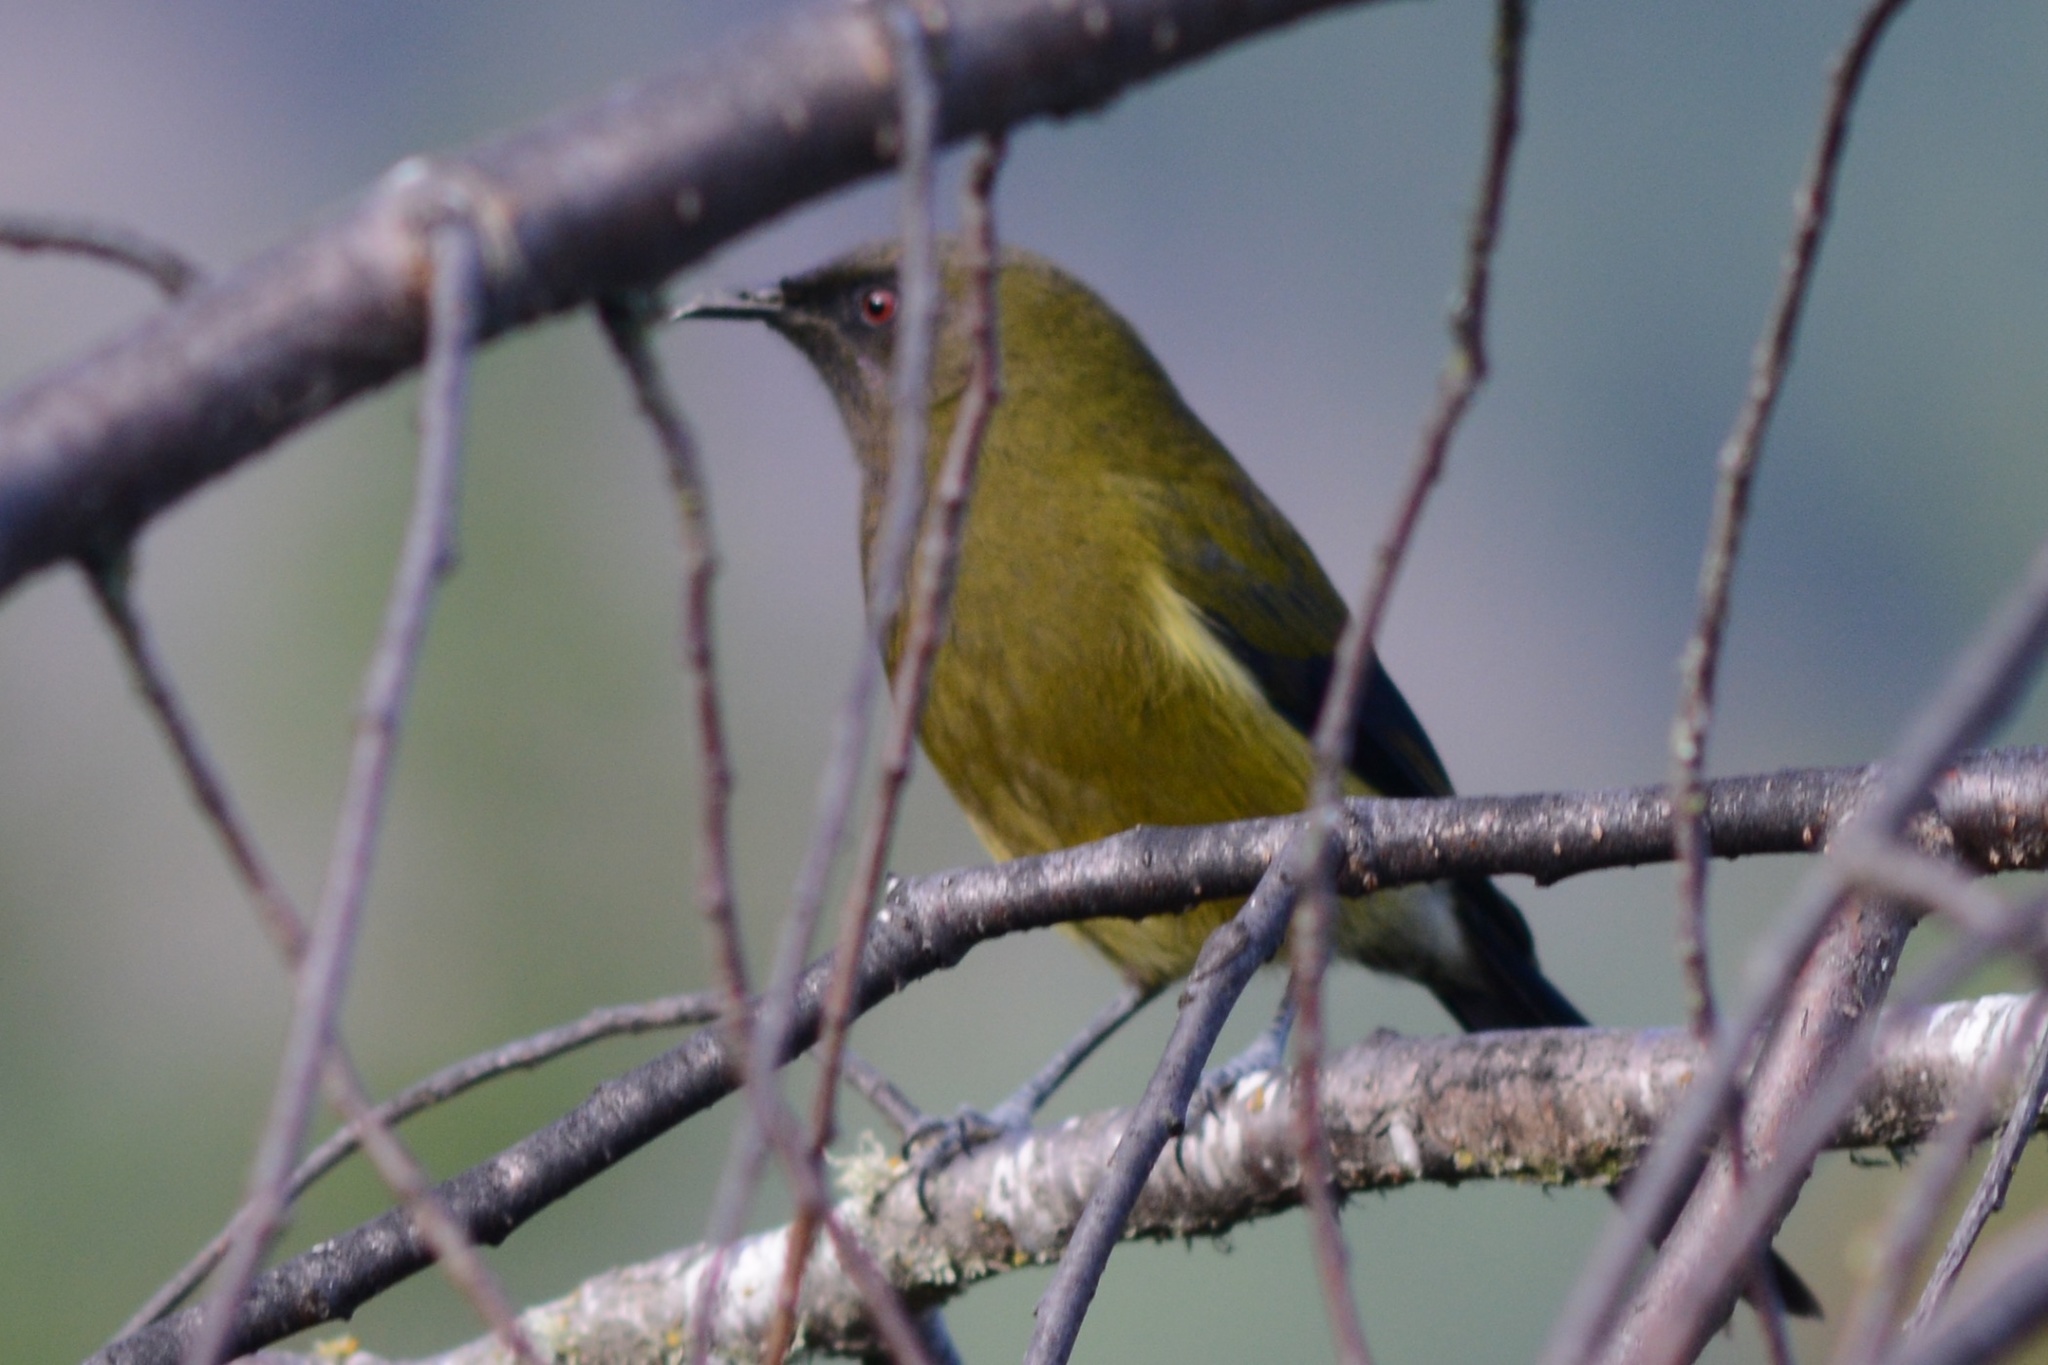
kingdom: Animalia
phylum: Chordata
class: Aves
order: Passeriformes
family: Meliphagidae
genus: Anthornis
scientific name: Anthornis melanura
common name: New zealand bellbird
